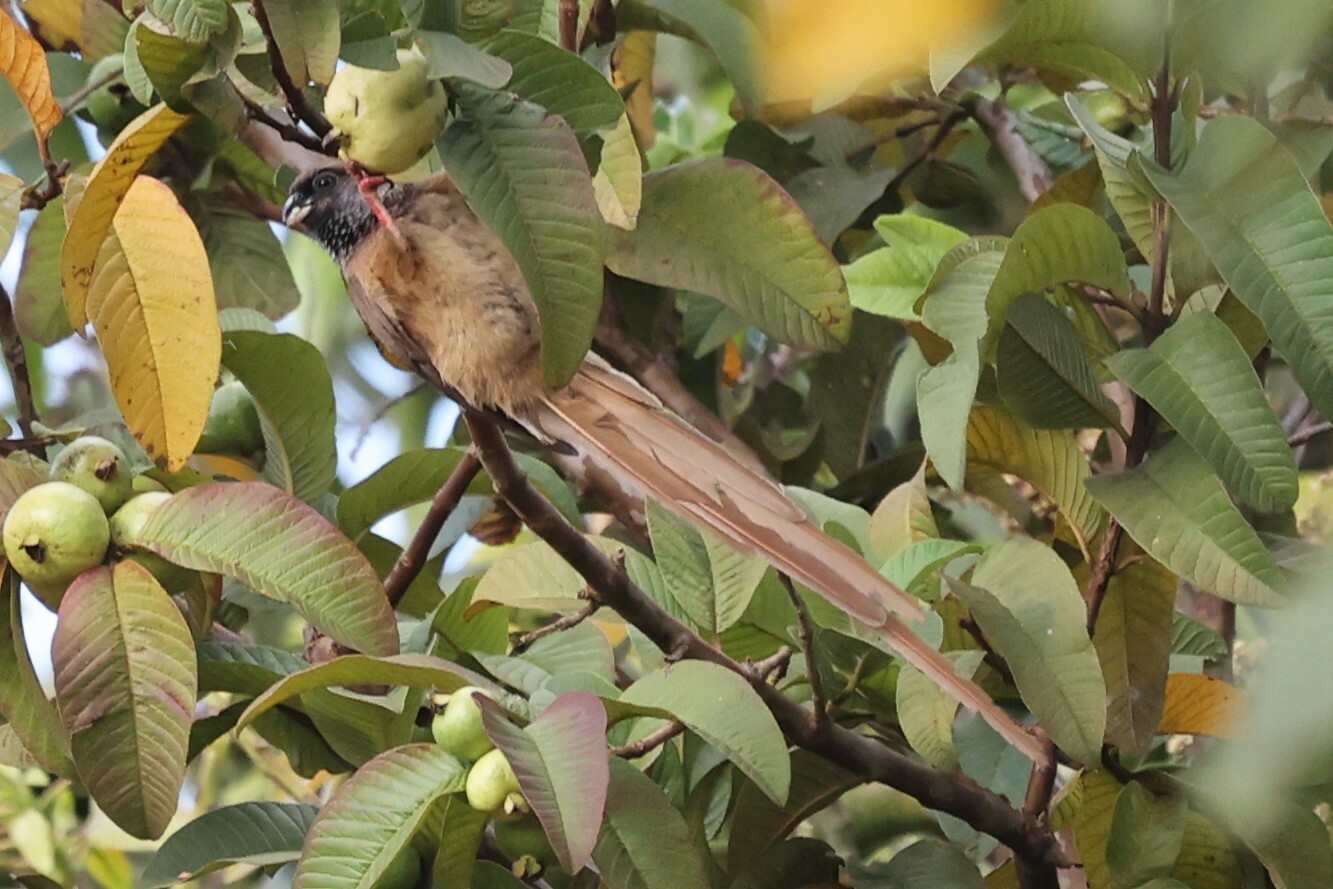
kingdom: Animalia
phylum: Chordata
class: Aves
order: Coliiformes
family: Coliidae
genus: Colius
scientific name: Colius striatus
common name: Speckled mousebird
